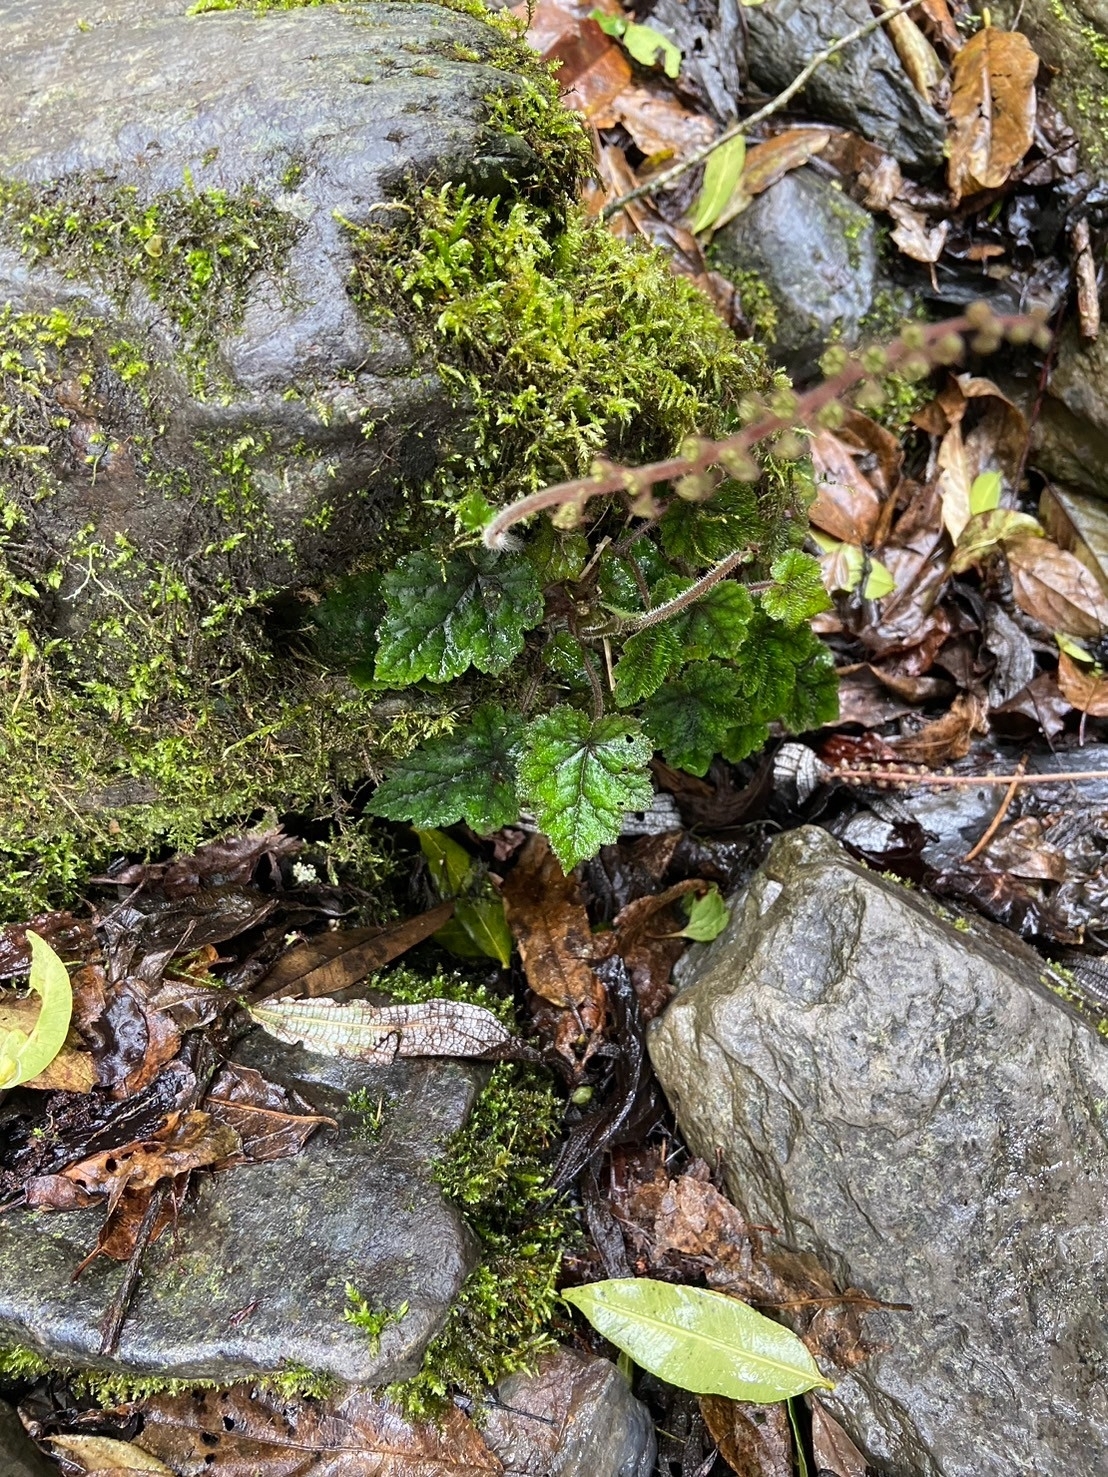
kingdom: Plantae
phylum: Tracheophyta
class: Magnoliopsida
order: Saxifragales
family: Saxifragaceae
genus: Asimitellaria
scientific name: Asimitellaria formosana
